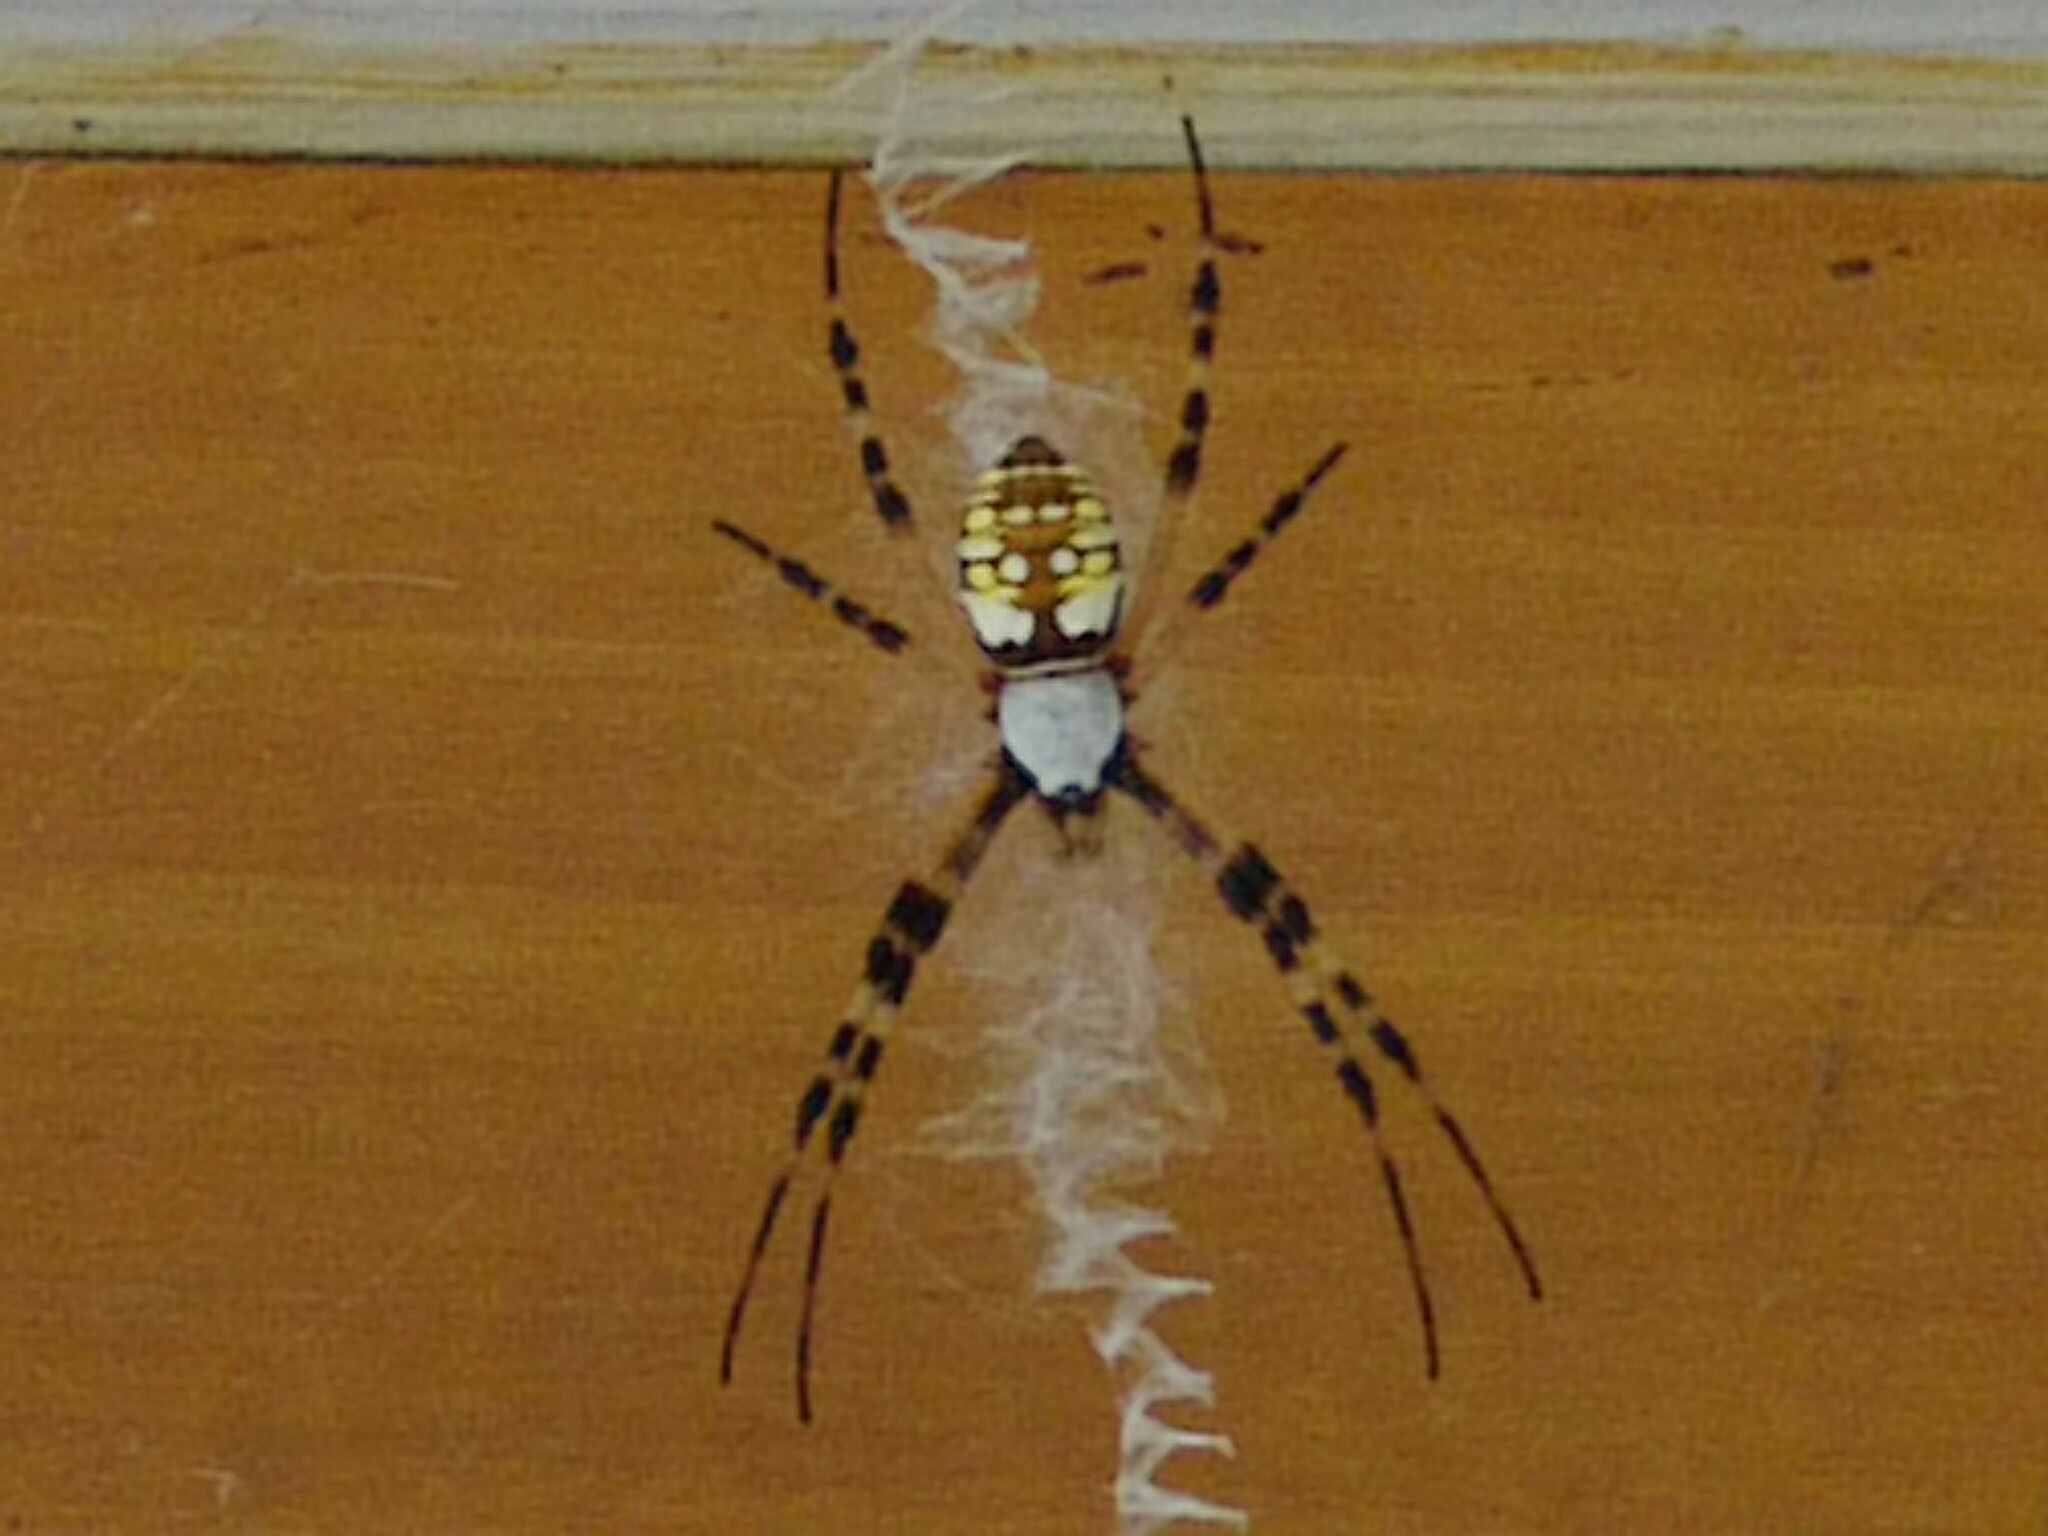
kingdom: Animalia
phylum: Arthropoda
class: Arachnida
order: Araneae
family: Araneidae
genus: Argiope
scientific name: Argiope aurantia
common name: Orb weavers
